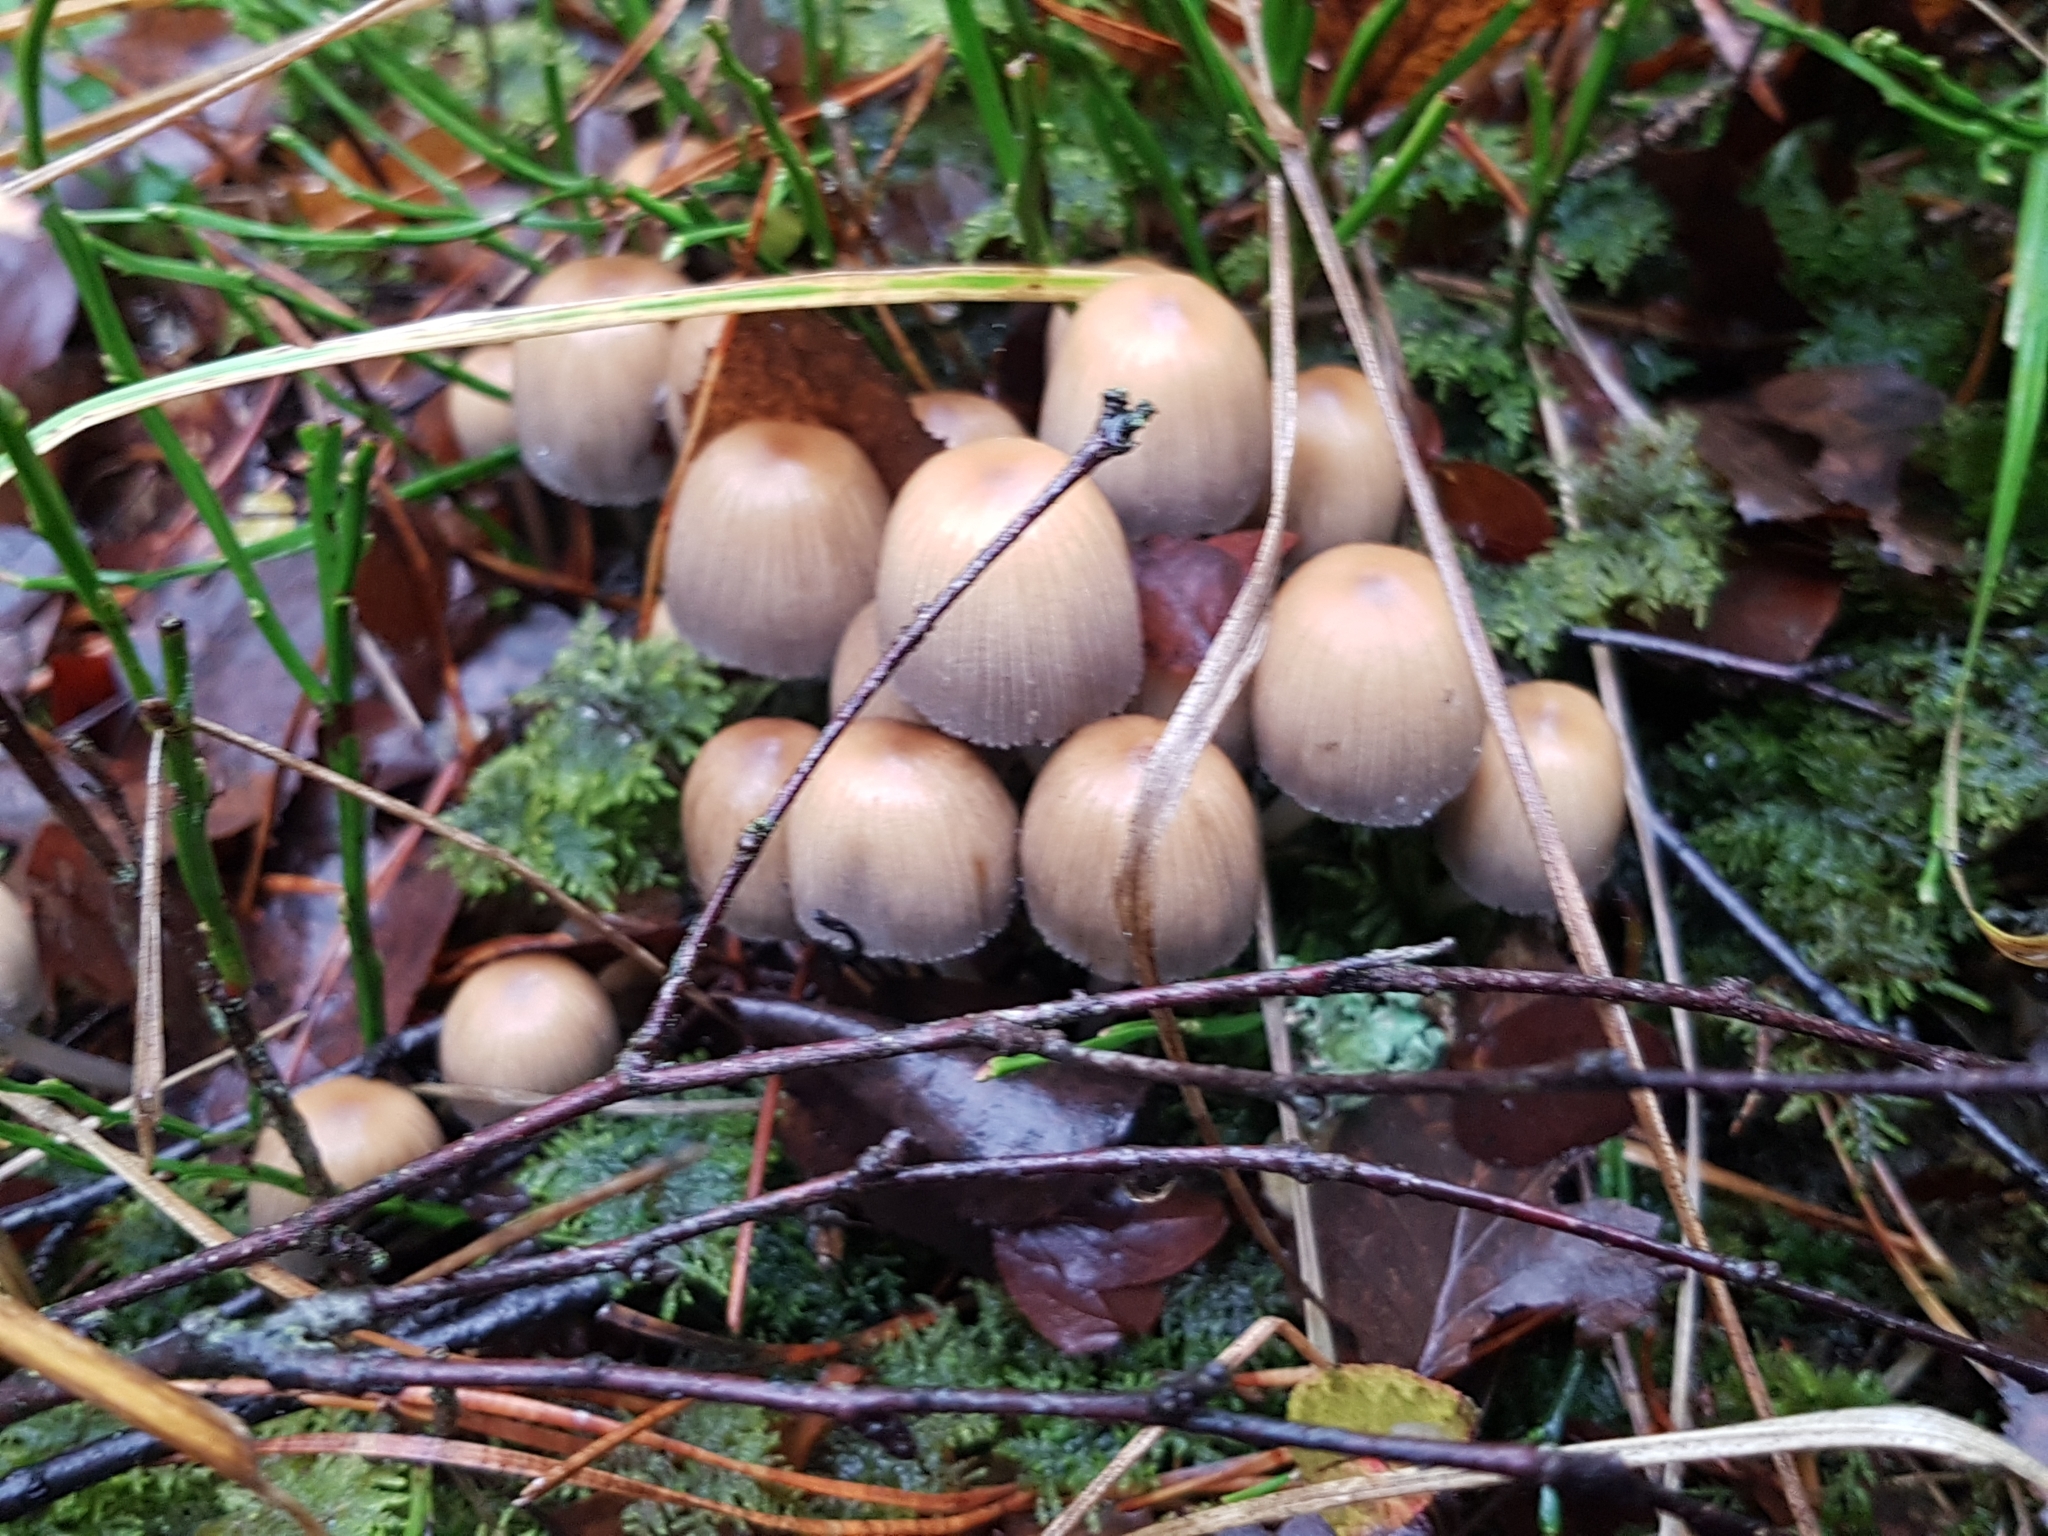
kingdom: Fungi
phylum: Basidiomycota
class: Agaricomycetes
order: Agaricales
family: Psathyrellaceae
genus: Coprinellus
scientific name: Coprinellus micaceus
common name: Glistening ink-cap
